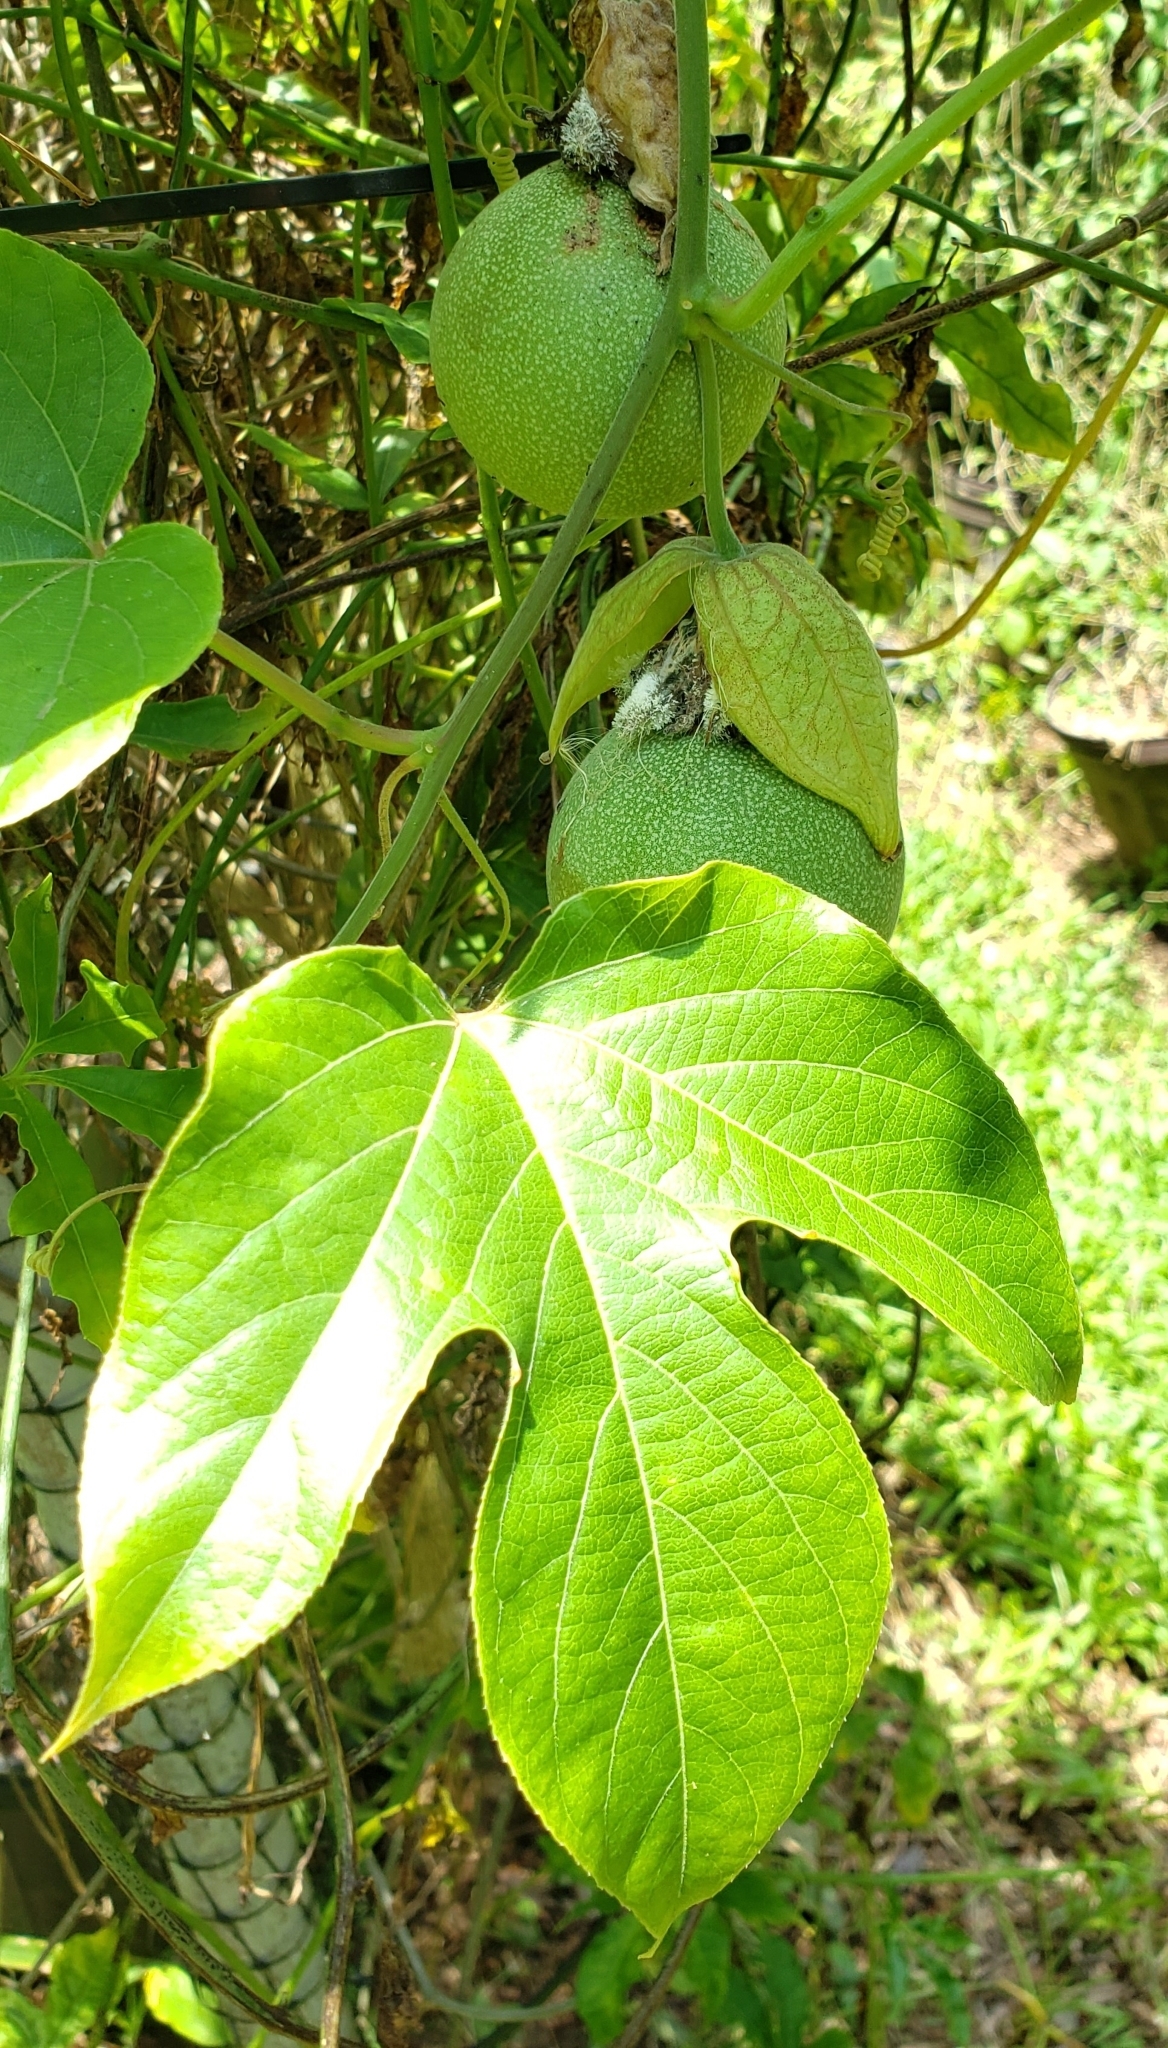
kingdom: Plantae
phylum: Tracheophyta
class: Magnoliopsida
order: Malpighiales
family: Passifloraceae
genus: Passiflora
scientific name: Passiflora platyloba
